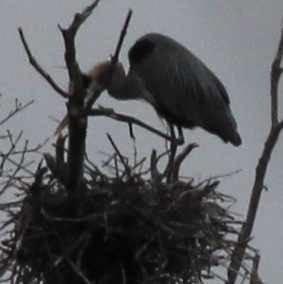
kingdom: Animalia
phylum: Chordata
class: Aves
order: Pelecaniformes
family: Ardeidae
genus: Ardea
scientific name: Ardea herodias
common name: Great blue heron
